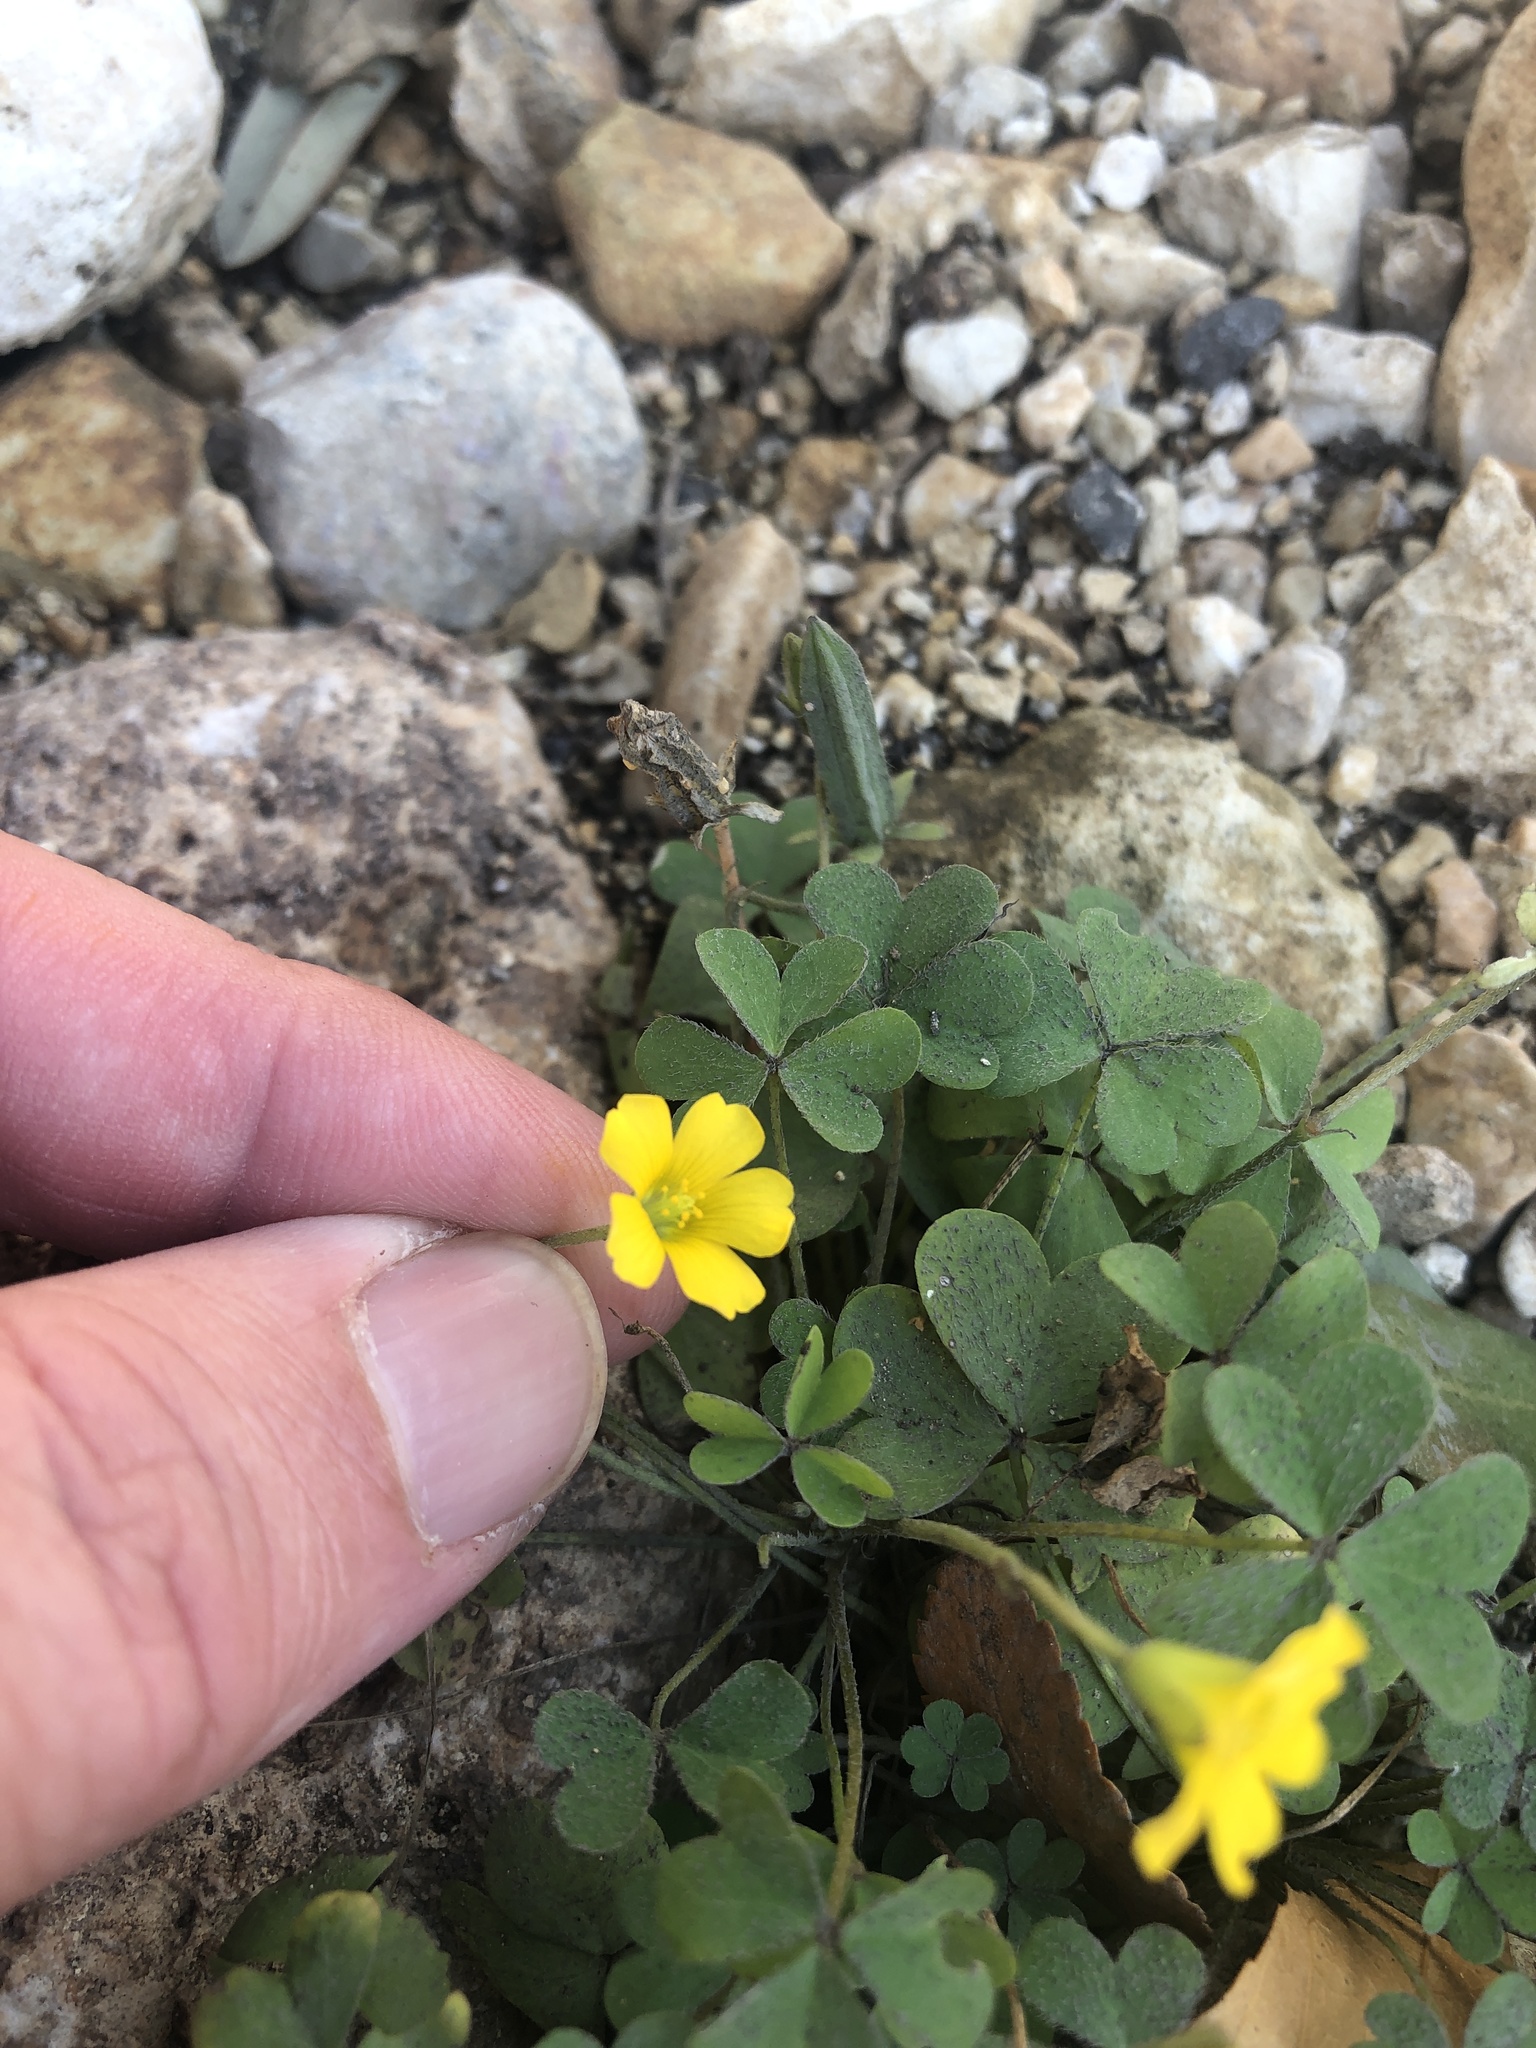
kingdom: Plantae
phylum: Tracheophyta
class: Magnoliopsida
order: Oxalidales
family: Oxalidaceae
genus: Oxalis
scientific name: Oxalis dillenii
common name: Sussex yellow-sorrel
